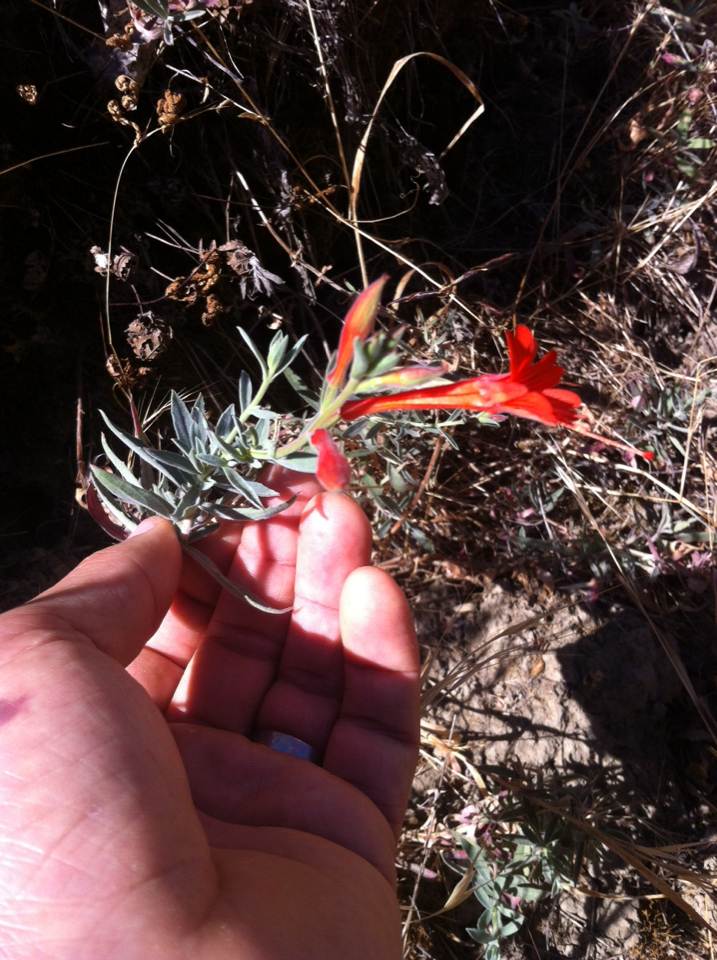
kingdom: Plantae
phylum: Tracheophyta
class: Magnoliopsida
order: Myrtales
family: Onagraceae
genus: Epilobium
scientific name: Epilobium canum
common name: California-fuchsia
